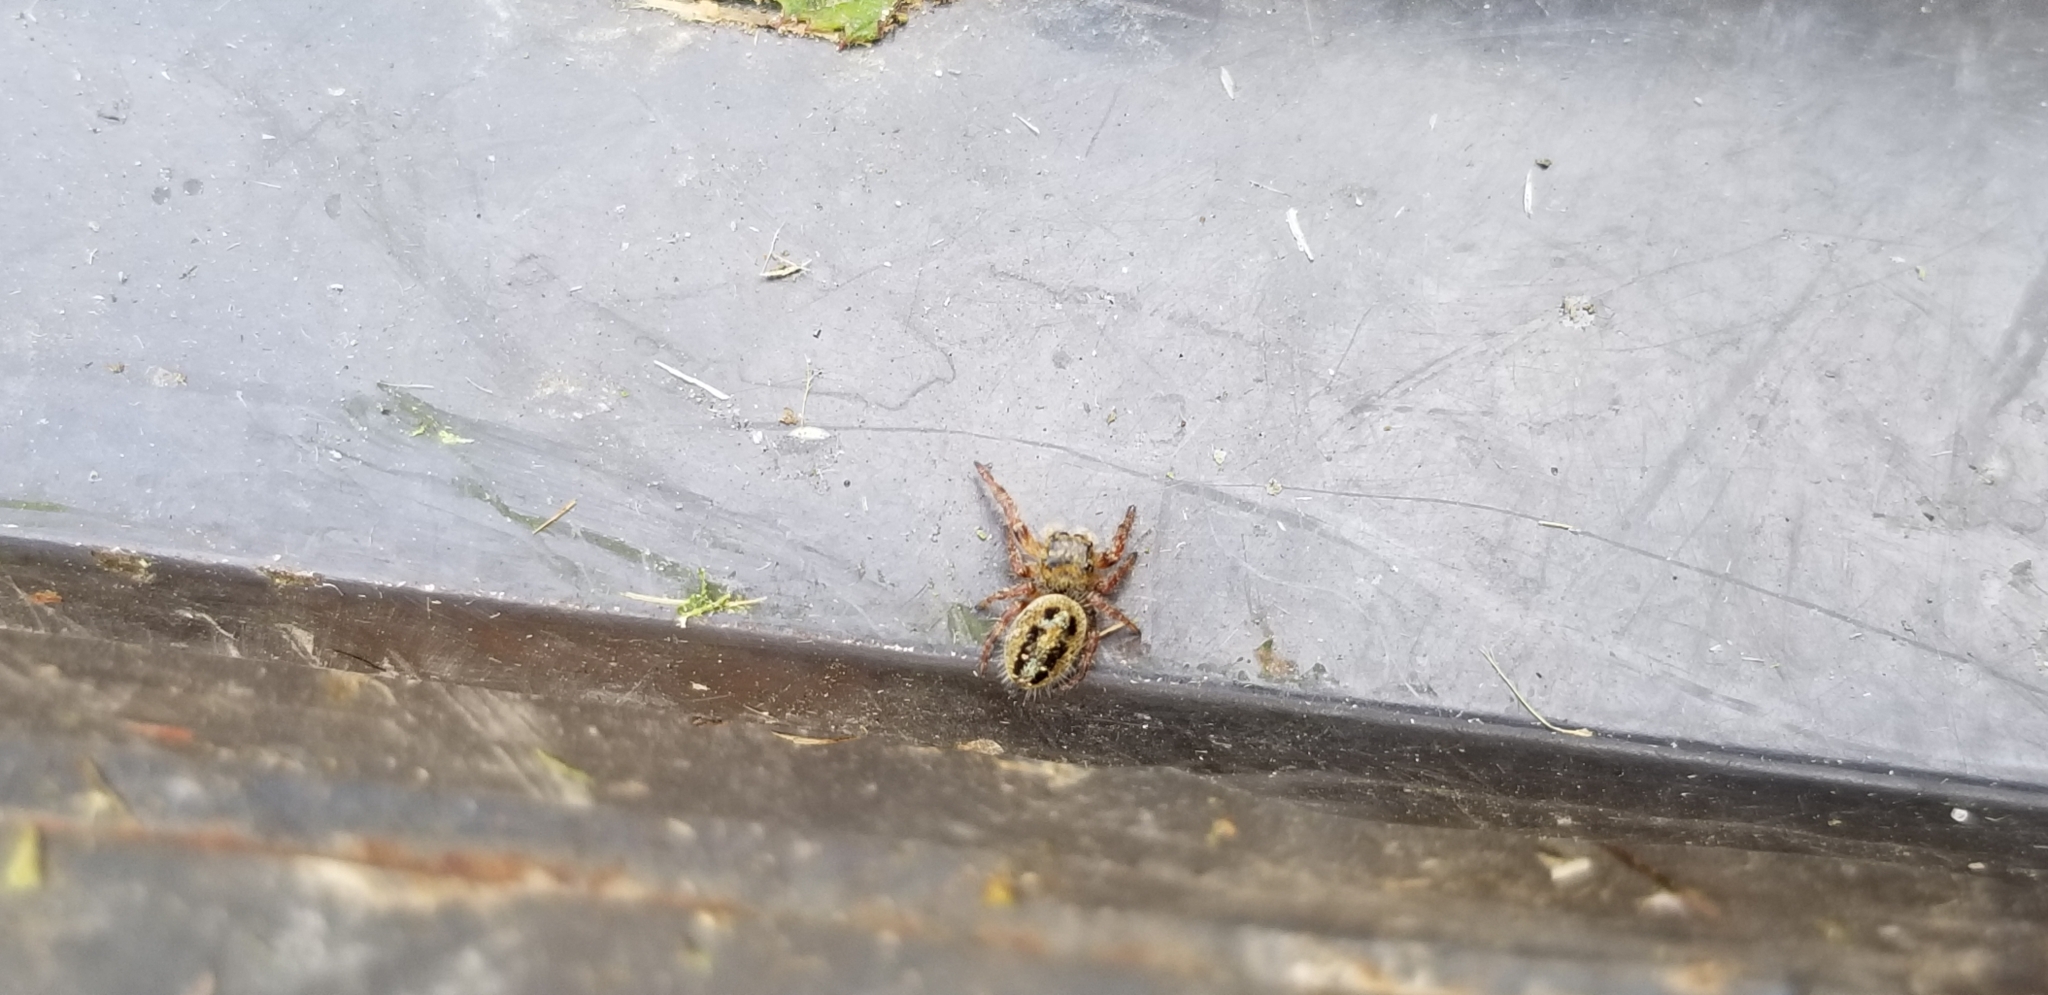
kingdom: Animalia
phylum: Arthropoda
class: Arachnida
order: Araneae
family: Salticidae
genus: Eris
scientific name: Eris militaris
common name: Bronze jumper
